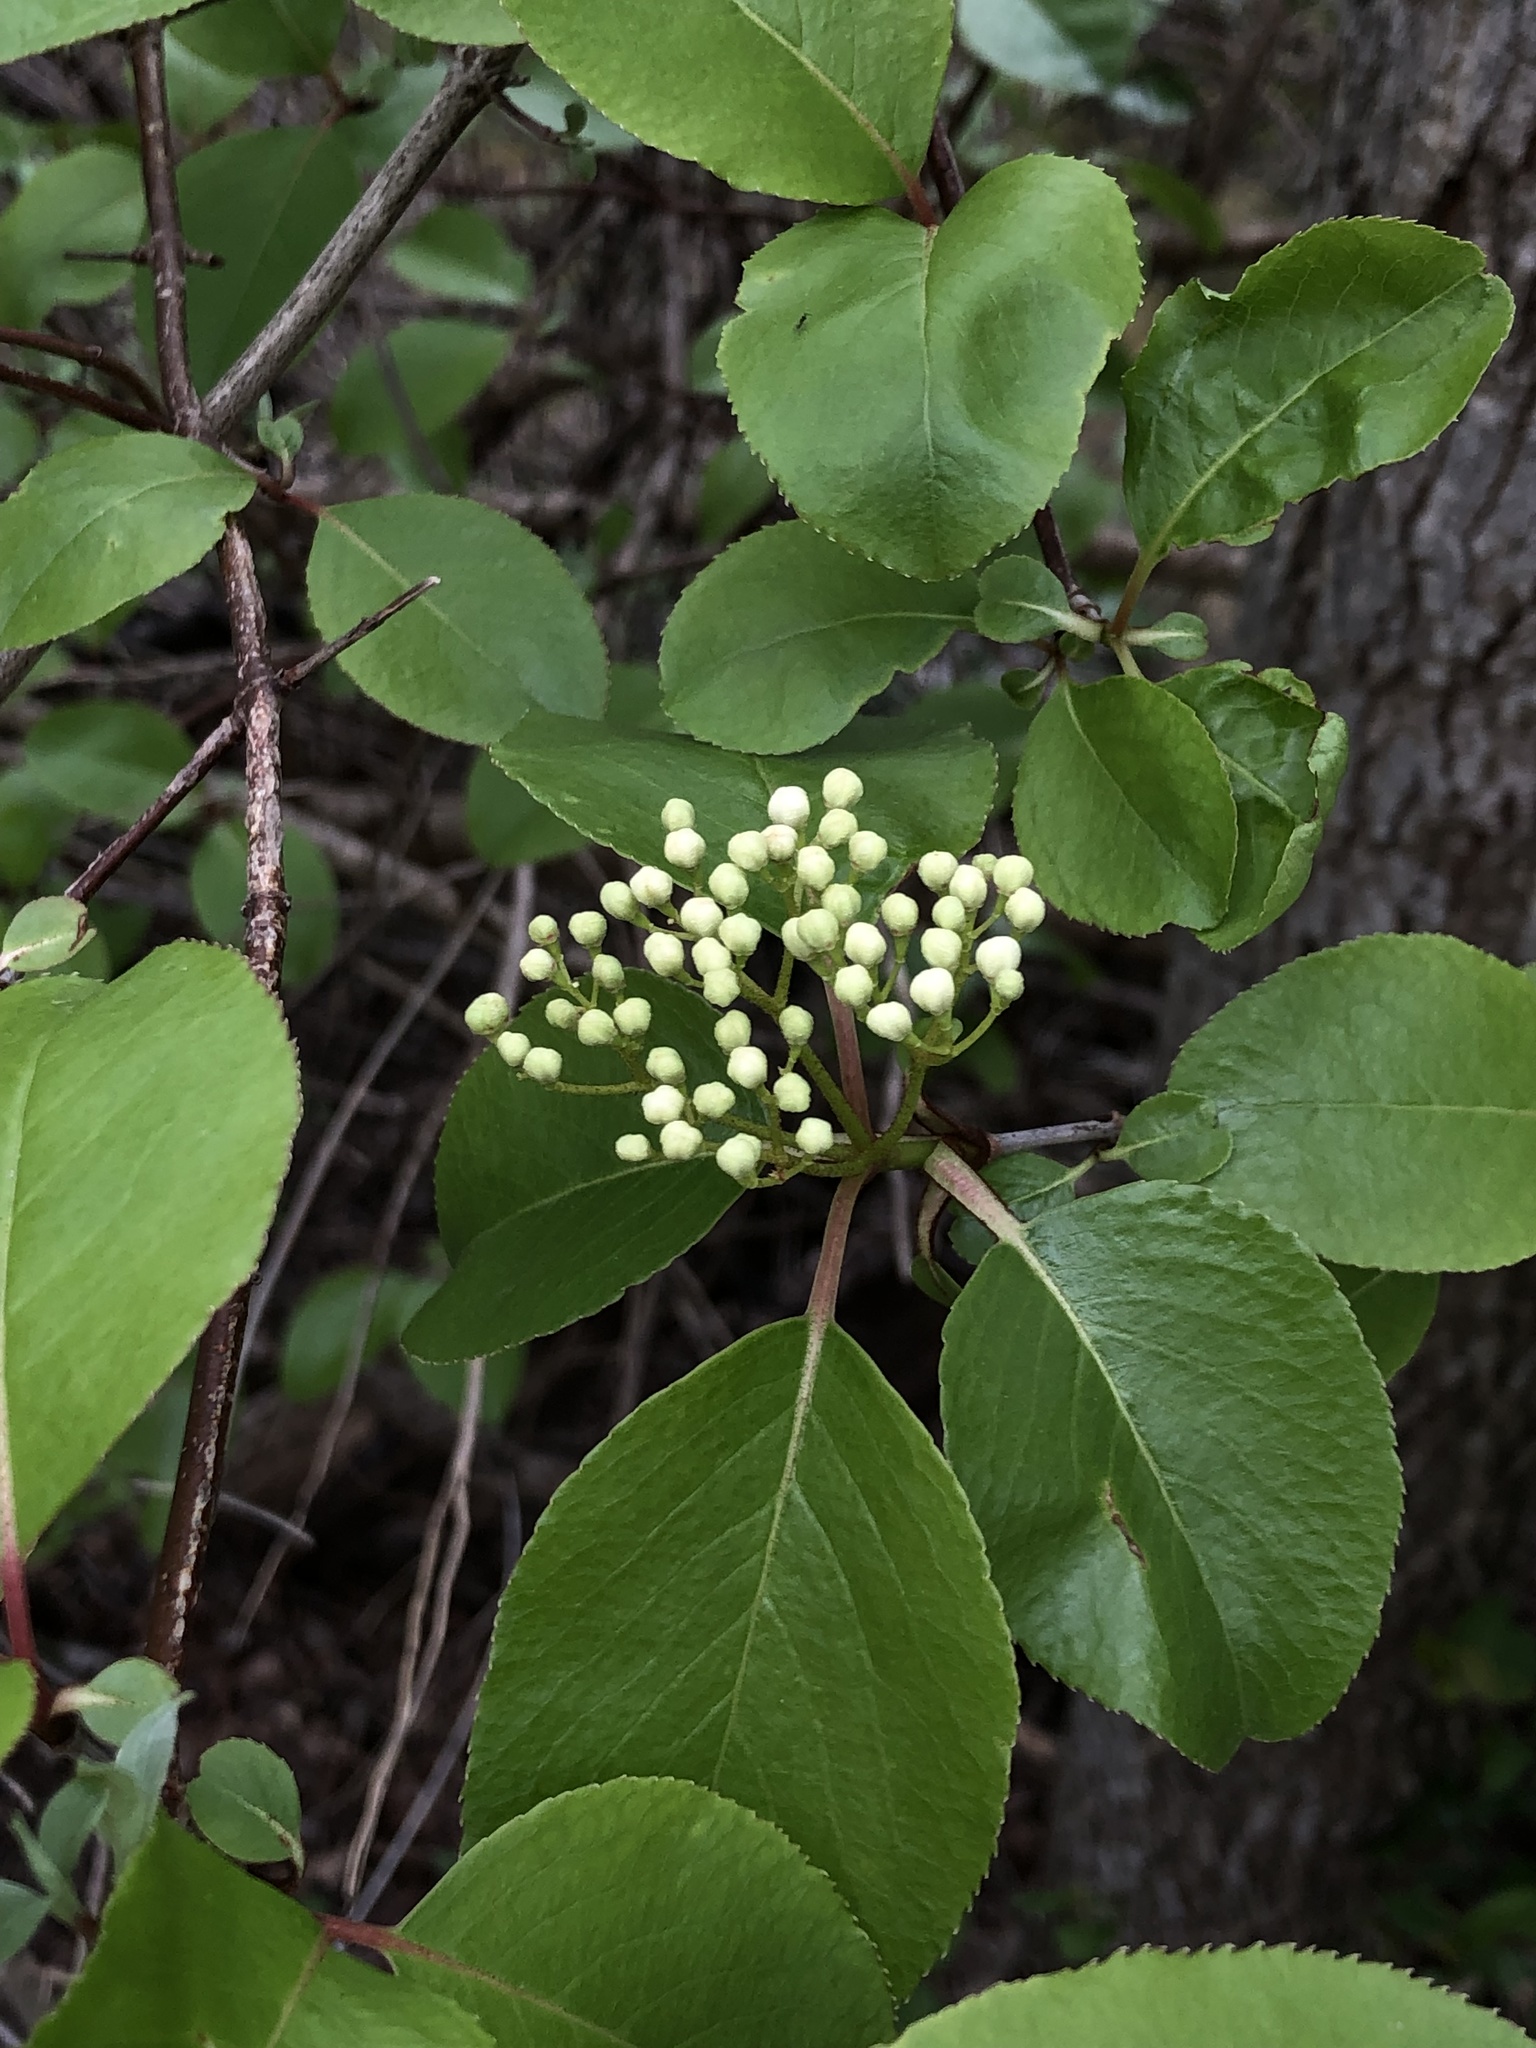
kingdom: Plantae
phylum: Tracheophyta
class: Magnoliopsida
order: Dipsacales
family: Viburnaceae
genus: Viburnum
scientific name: Viburnum rufidulum
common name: Blue haw
